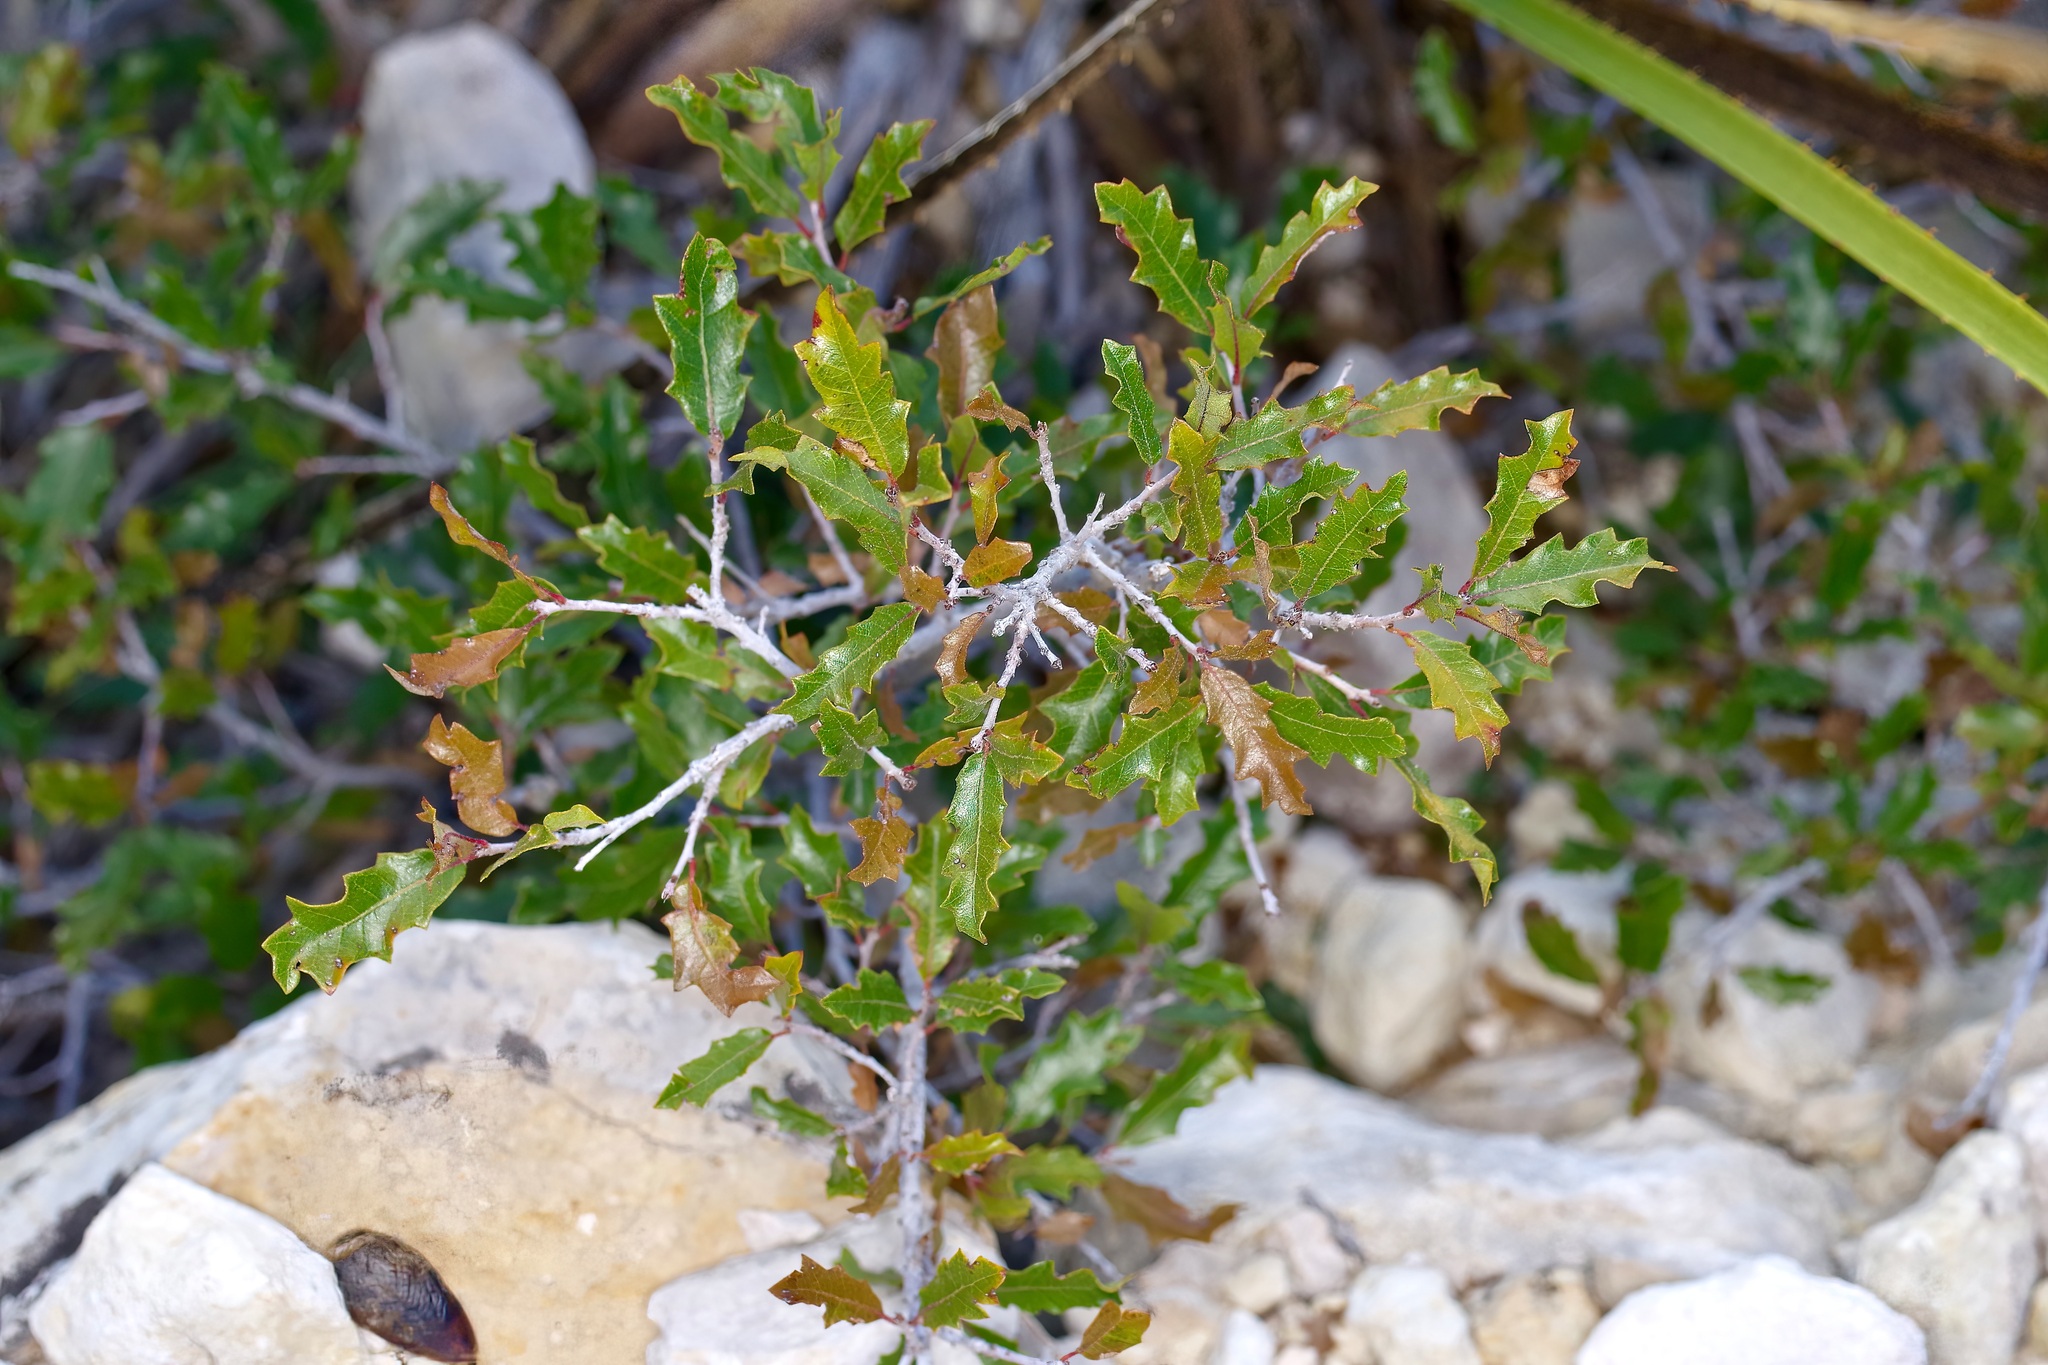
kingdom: Plantae
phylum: Tracheophyta
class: Magnoliopsida
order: Fagales
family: Fagaceae
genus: Quercus
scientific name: Quercus vaseyana
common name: Sandpaper oak
